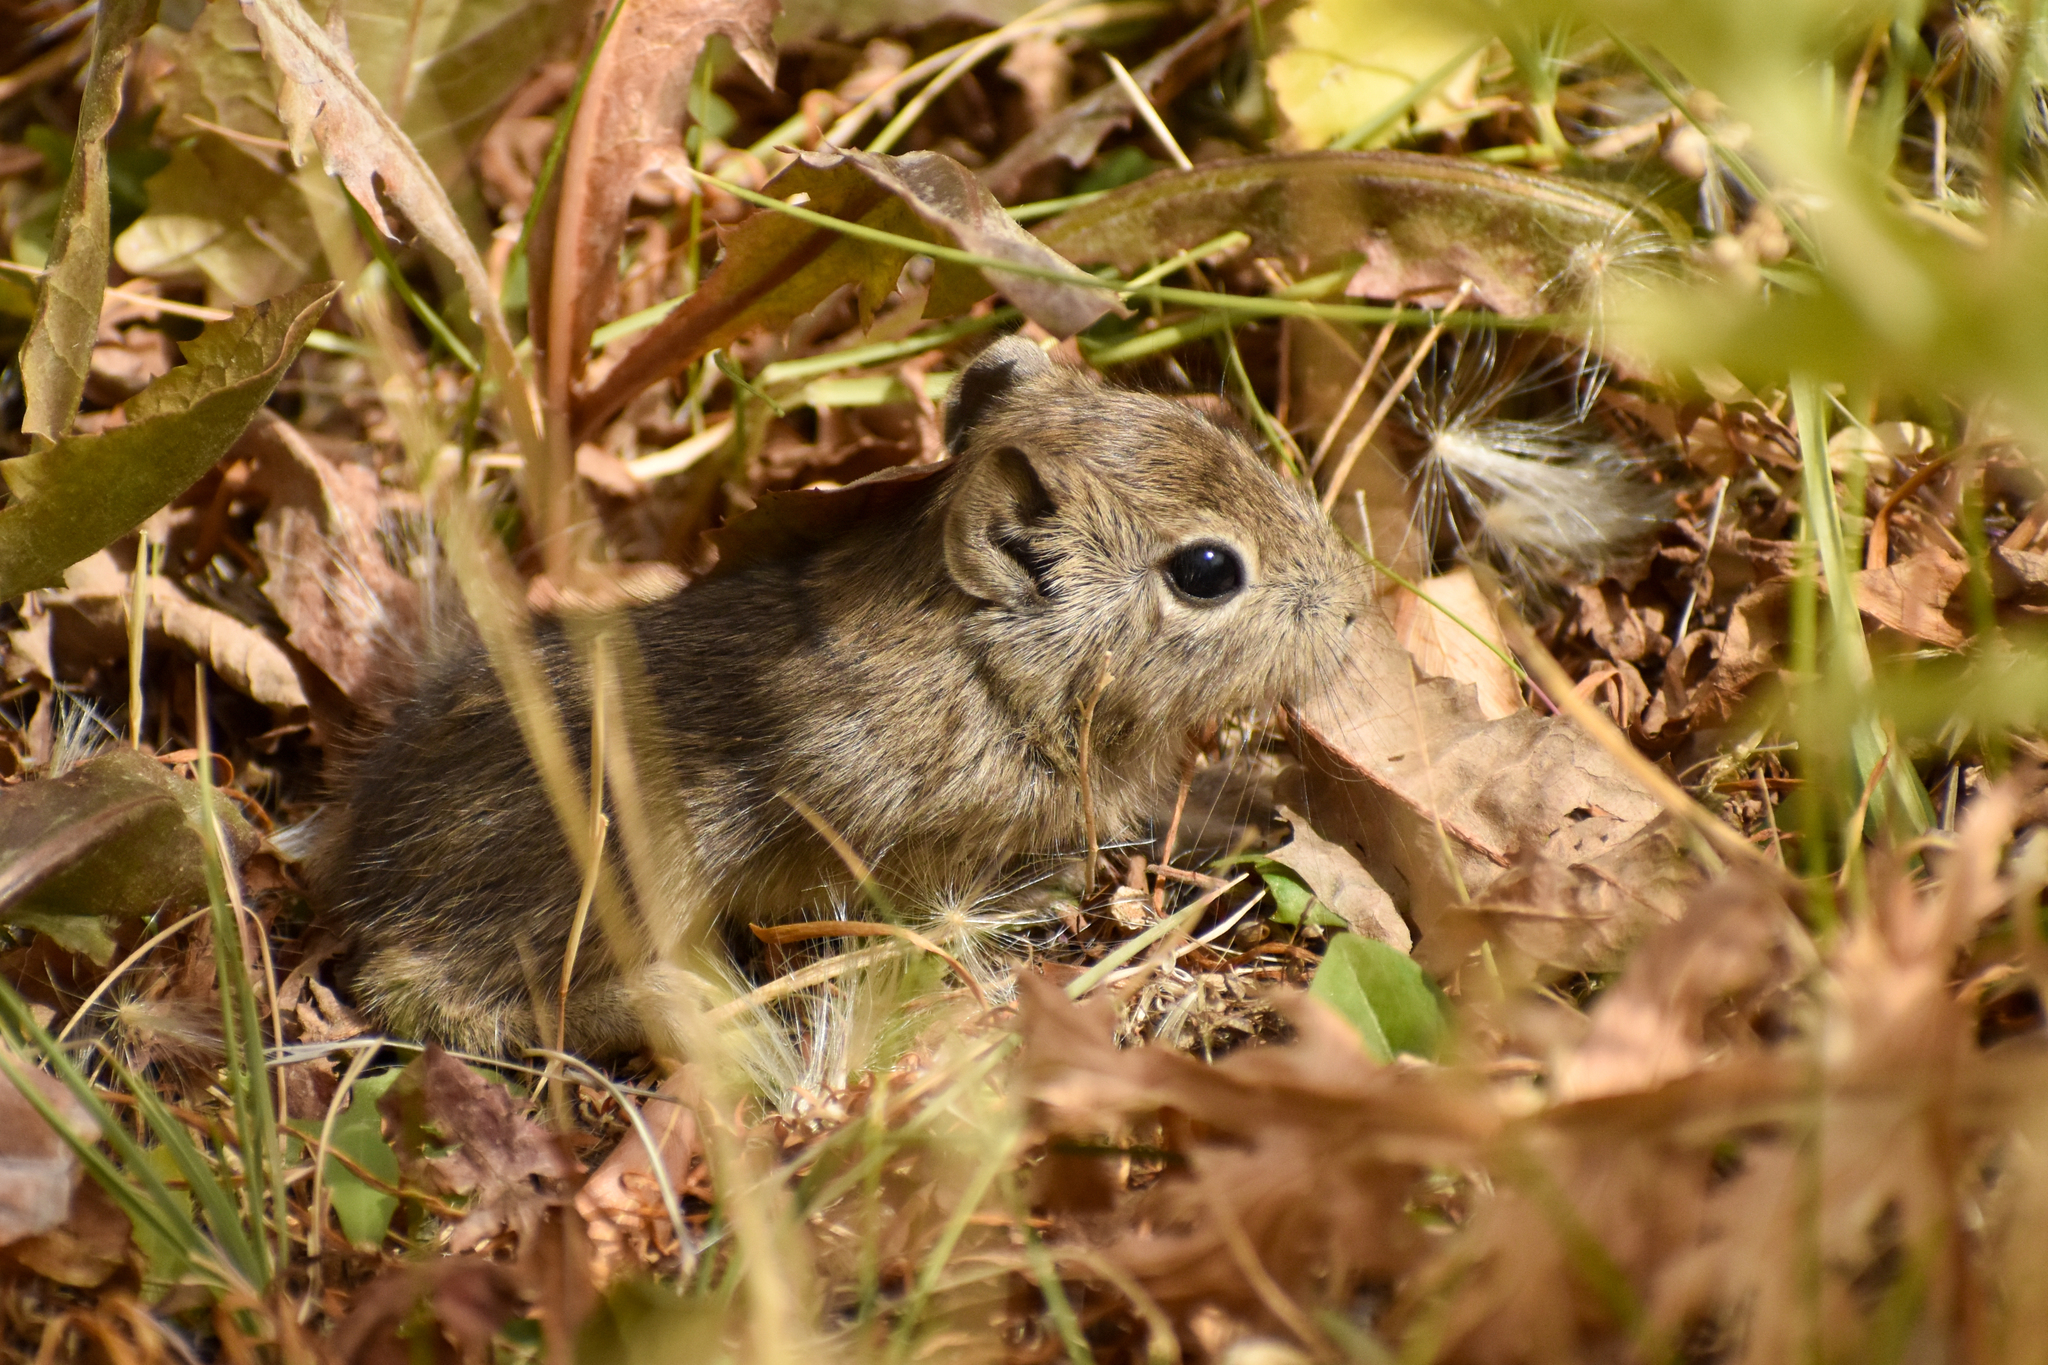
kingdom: Animalia
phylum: Chordata
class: Mammalia
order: Rodentia
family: Caviidae
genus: Microcavia
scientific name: Microcavia australis
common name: Southern mountain cavy
